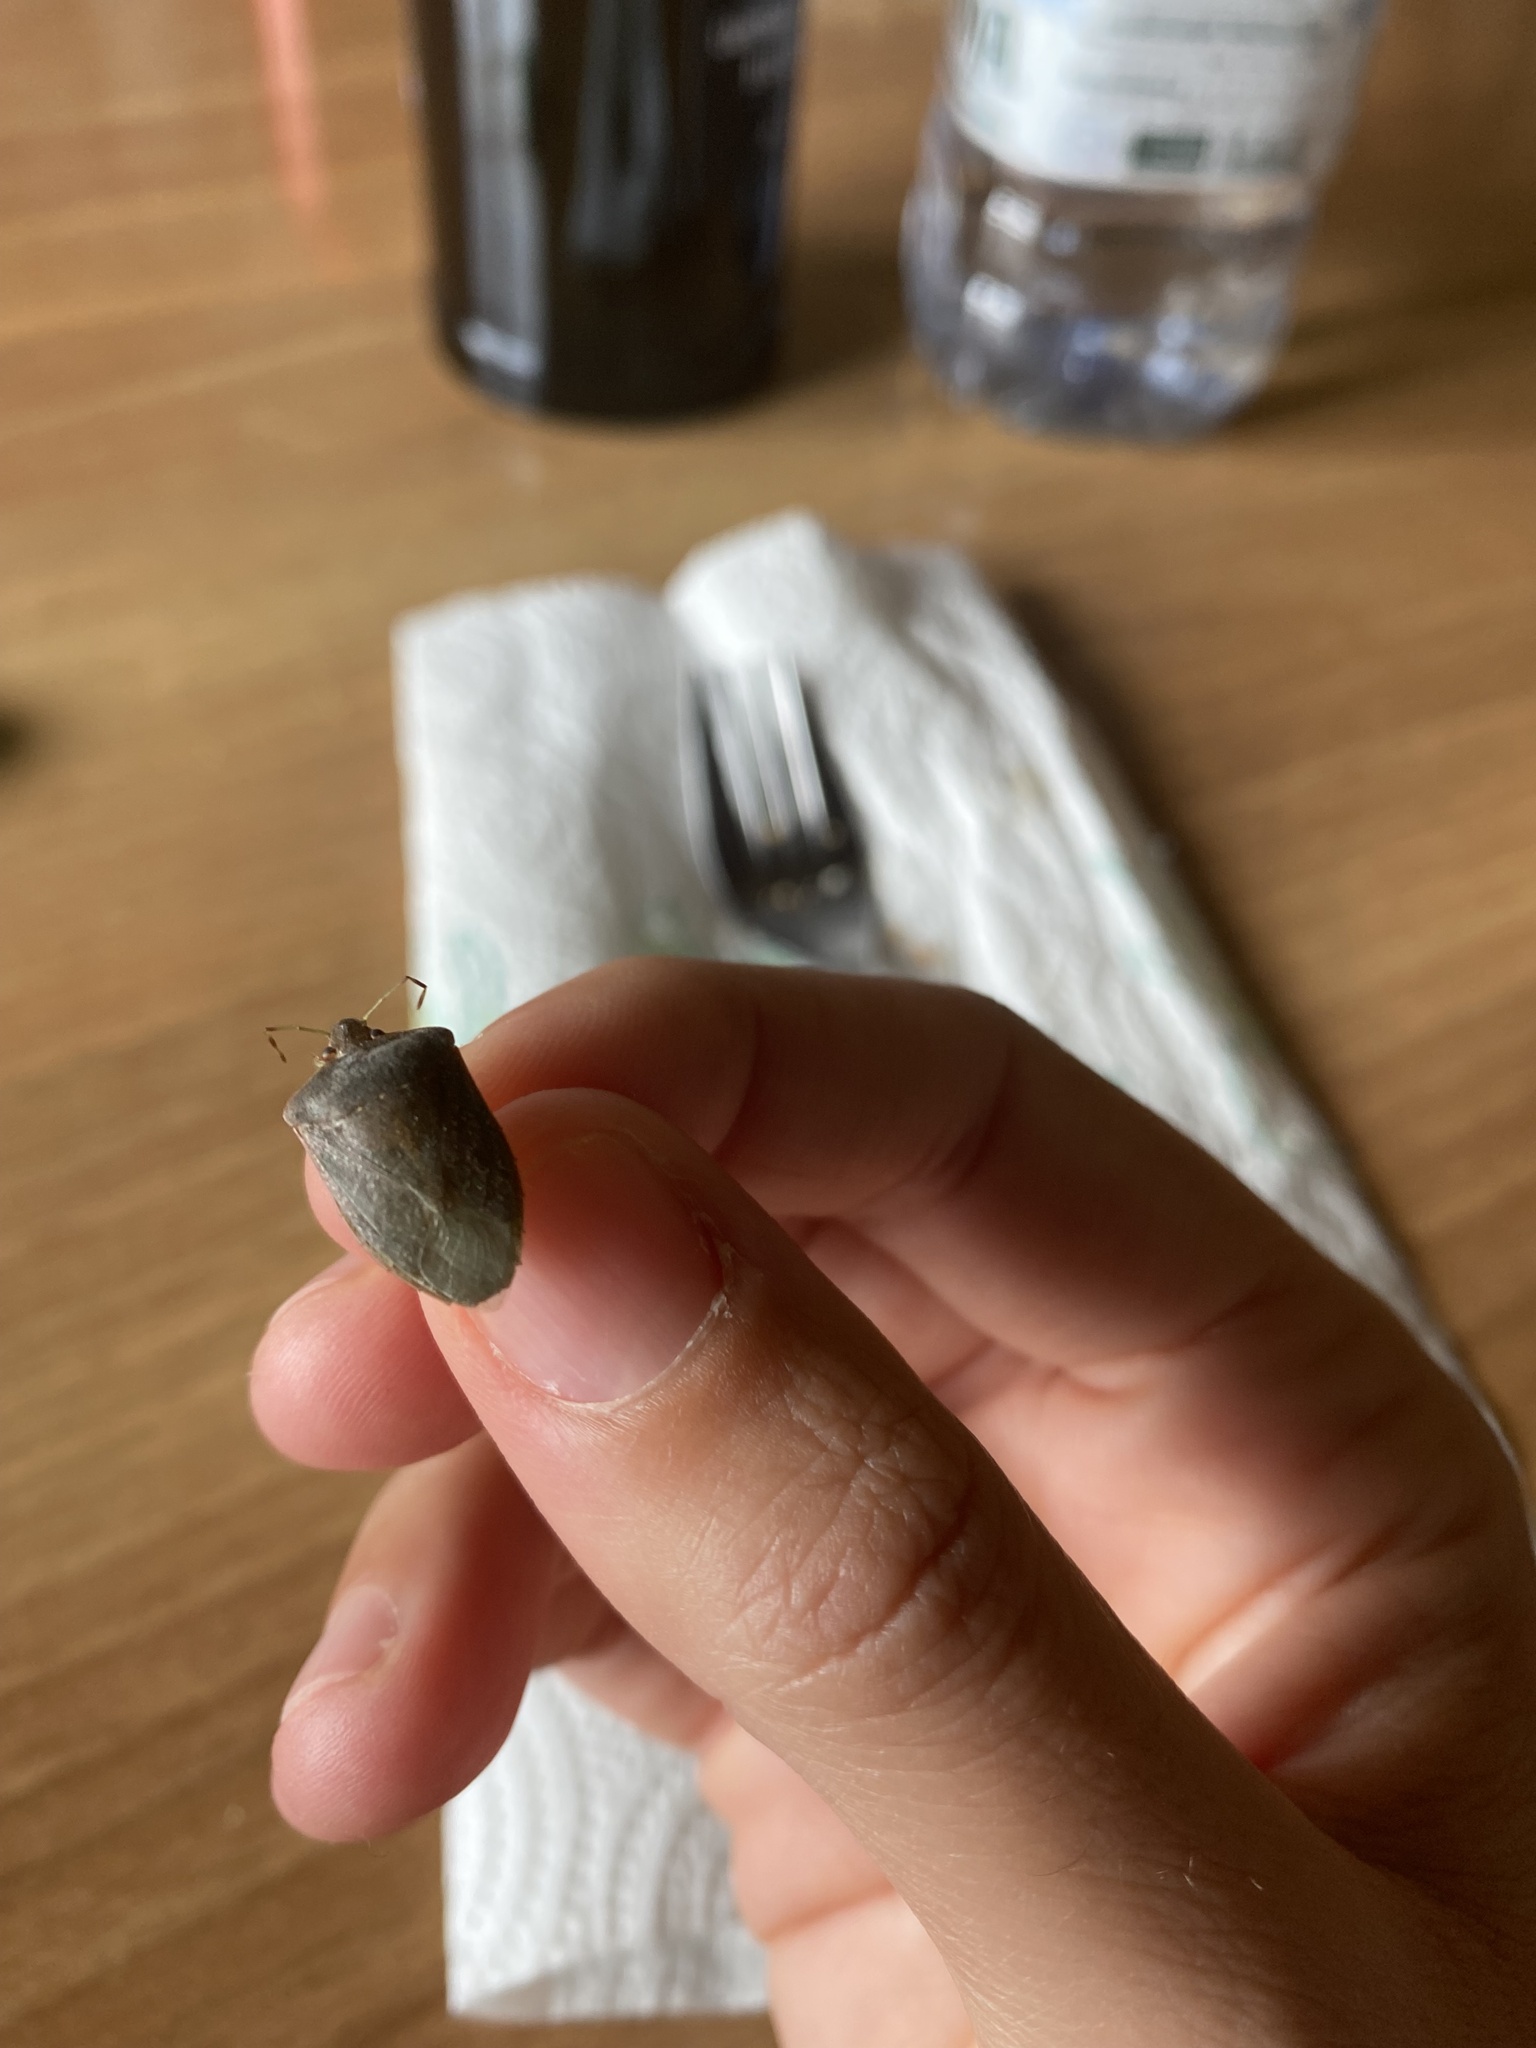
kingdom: Animalia
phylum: Arthropoda
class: Insecta
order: Hemiptera
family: Pentatomidae
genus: Nezara
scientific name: Nezara viridula
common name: Southern green stink bug
